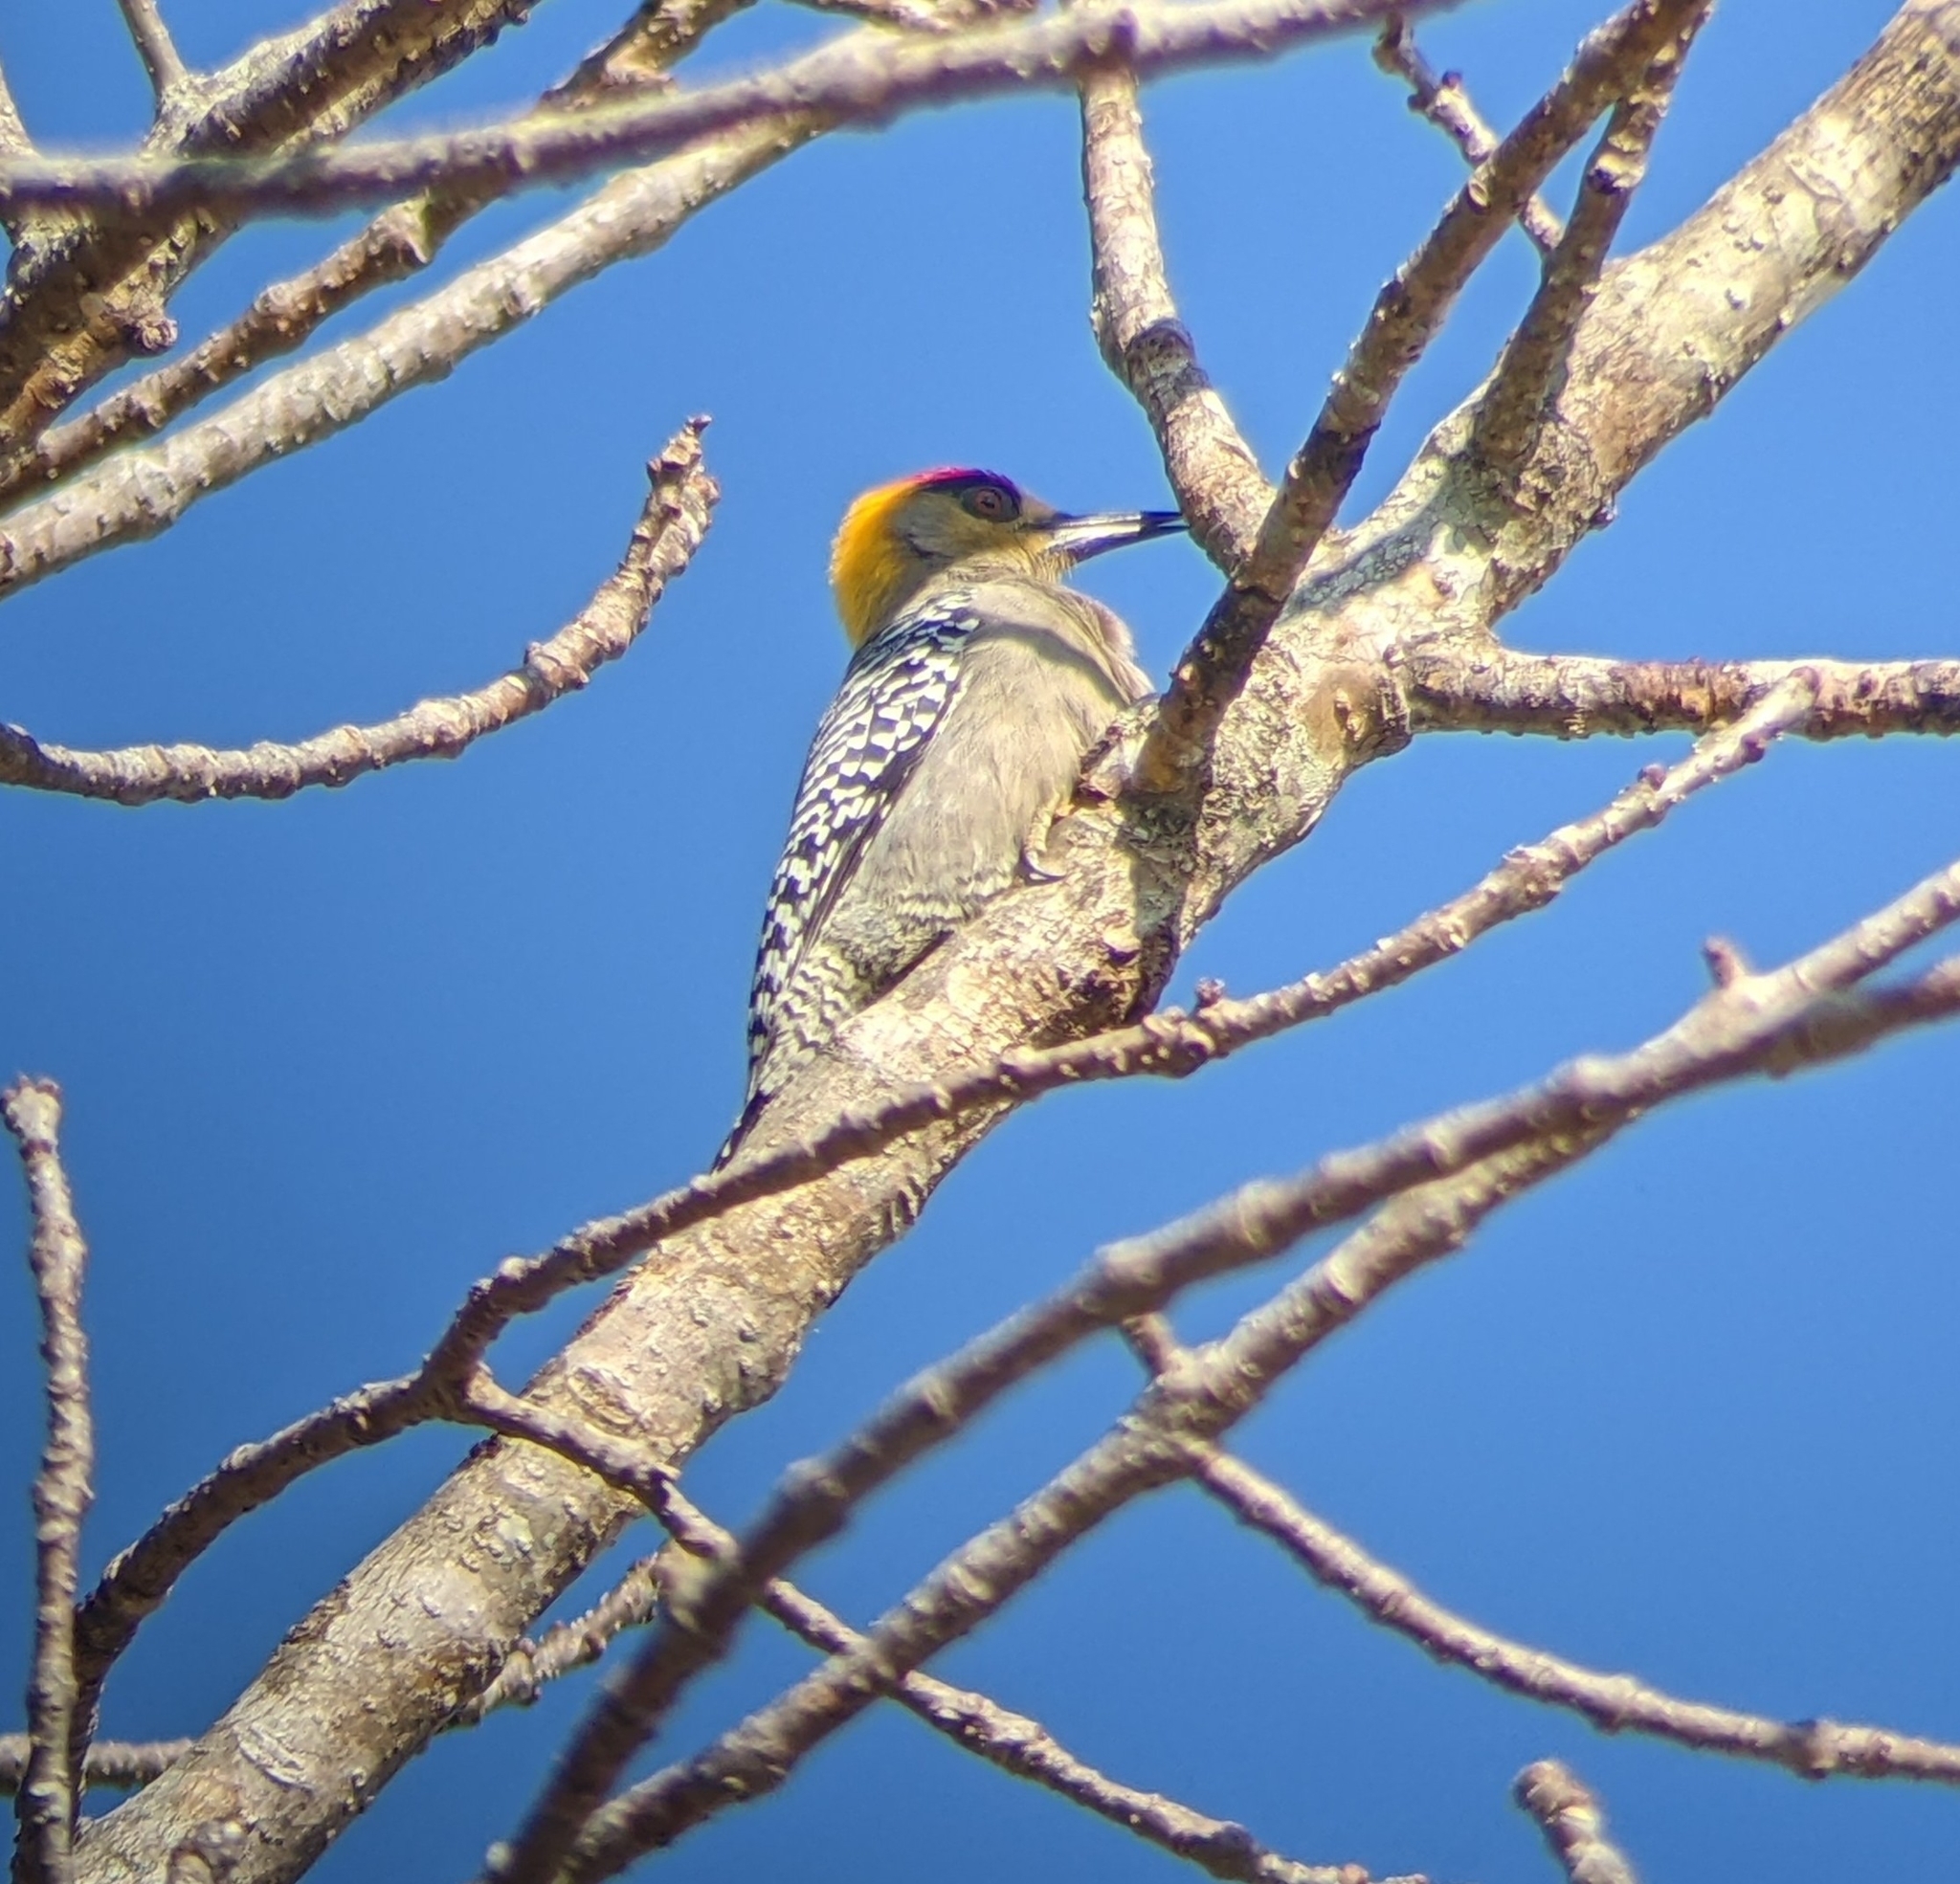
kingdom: Animalia
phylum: Chordata
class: Aves
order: Piciformes
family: Picidae
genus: Melanerpes
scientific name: Melanerpes chrysogenys
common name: Golden-cheeked woodpecker
